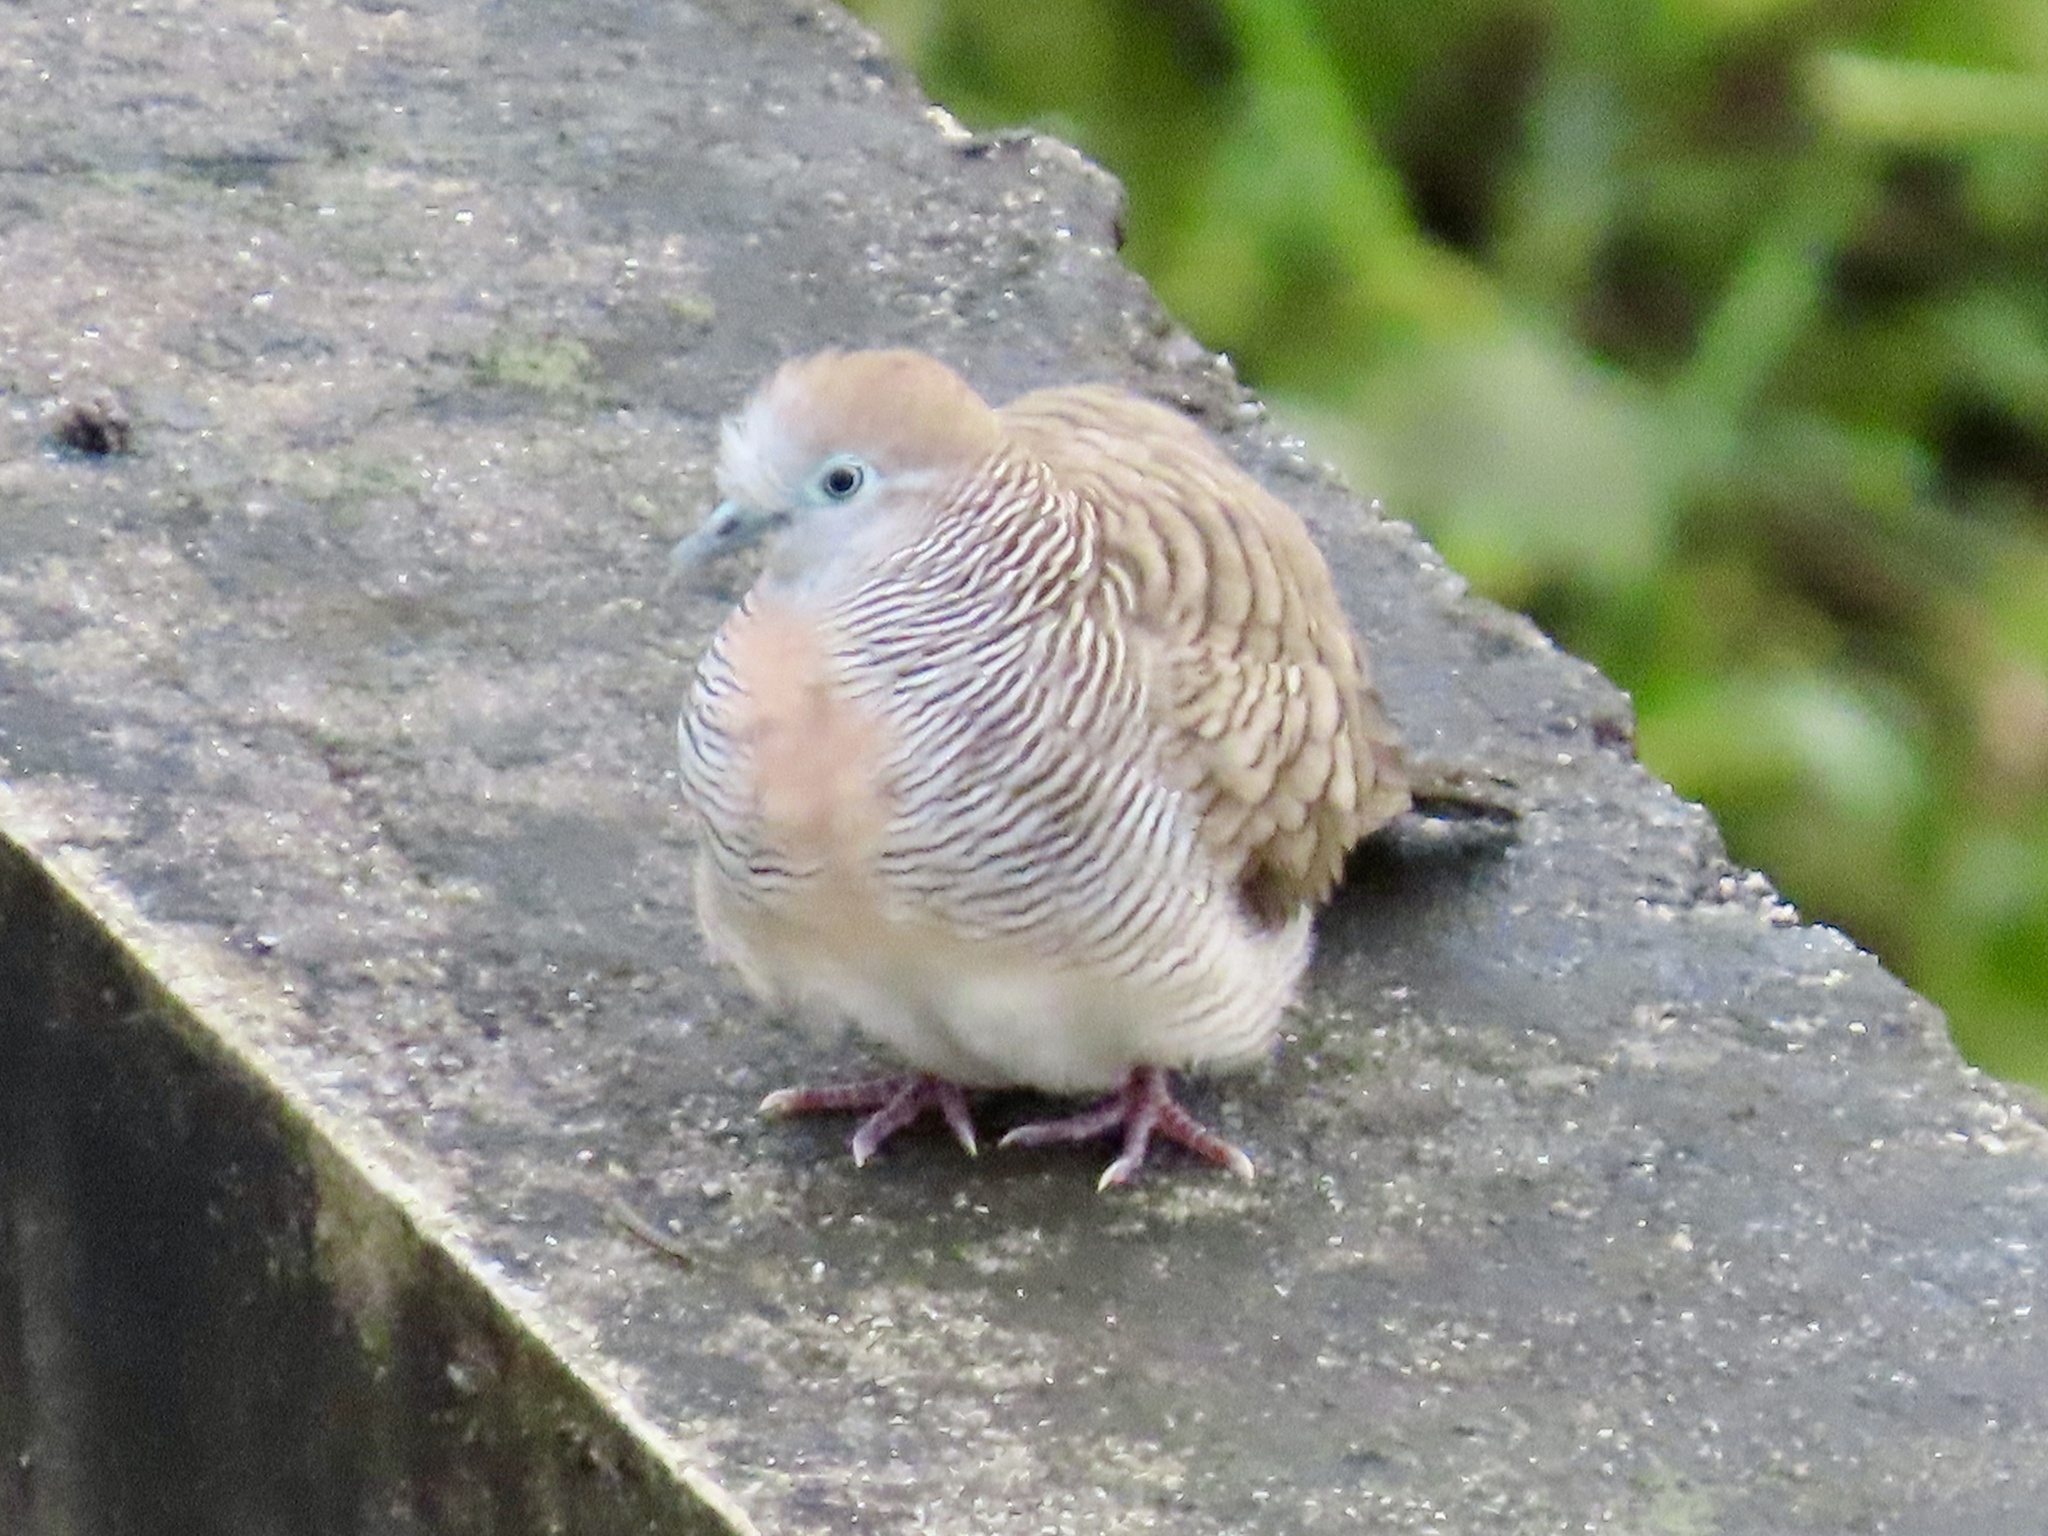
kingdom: Animalia
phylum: Chordata
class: Aves
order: Columbiformes
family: Columbidae
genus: Geopelia
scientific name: Geopelia striata
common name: Zebra dove
